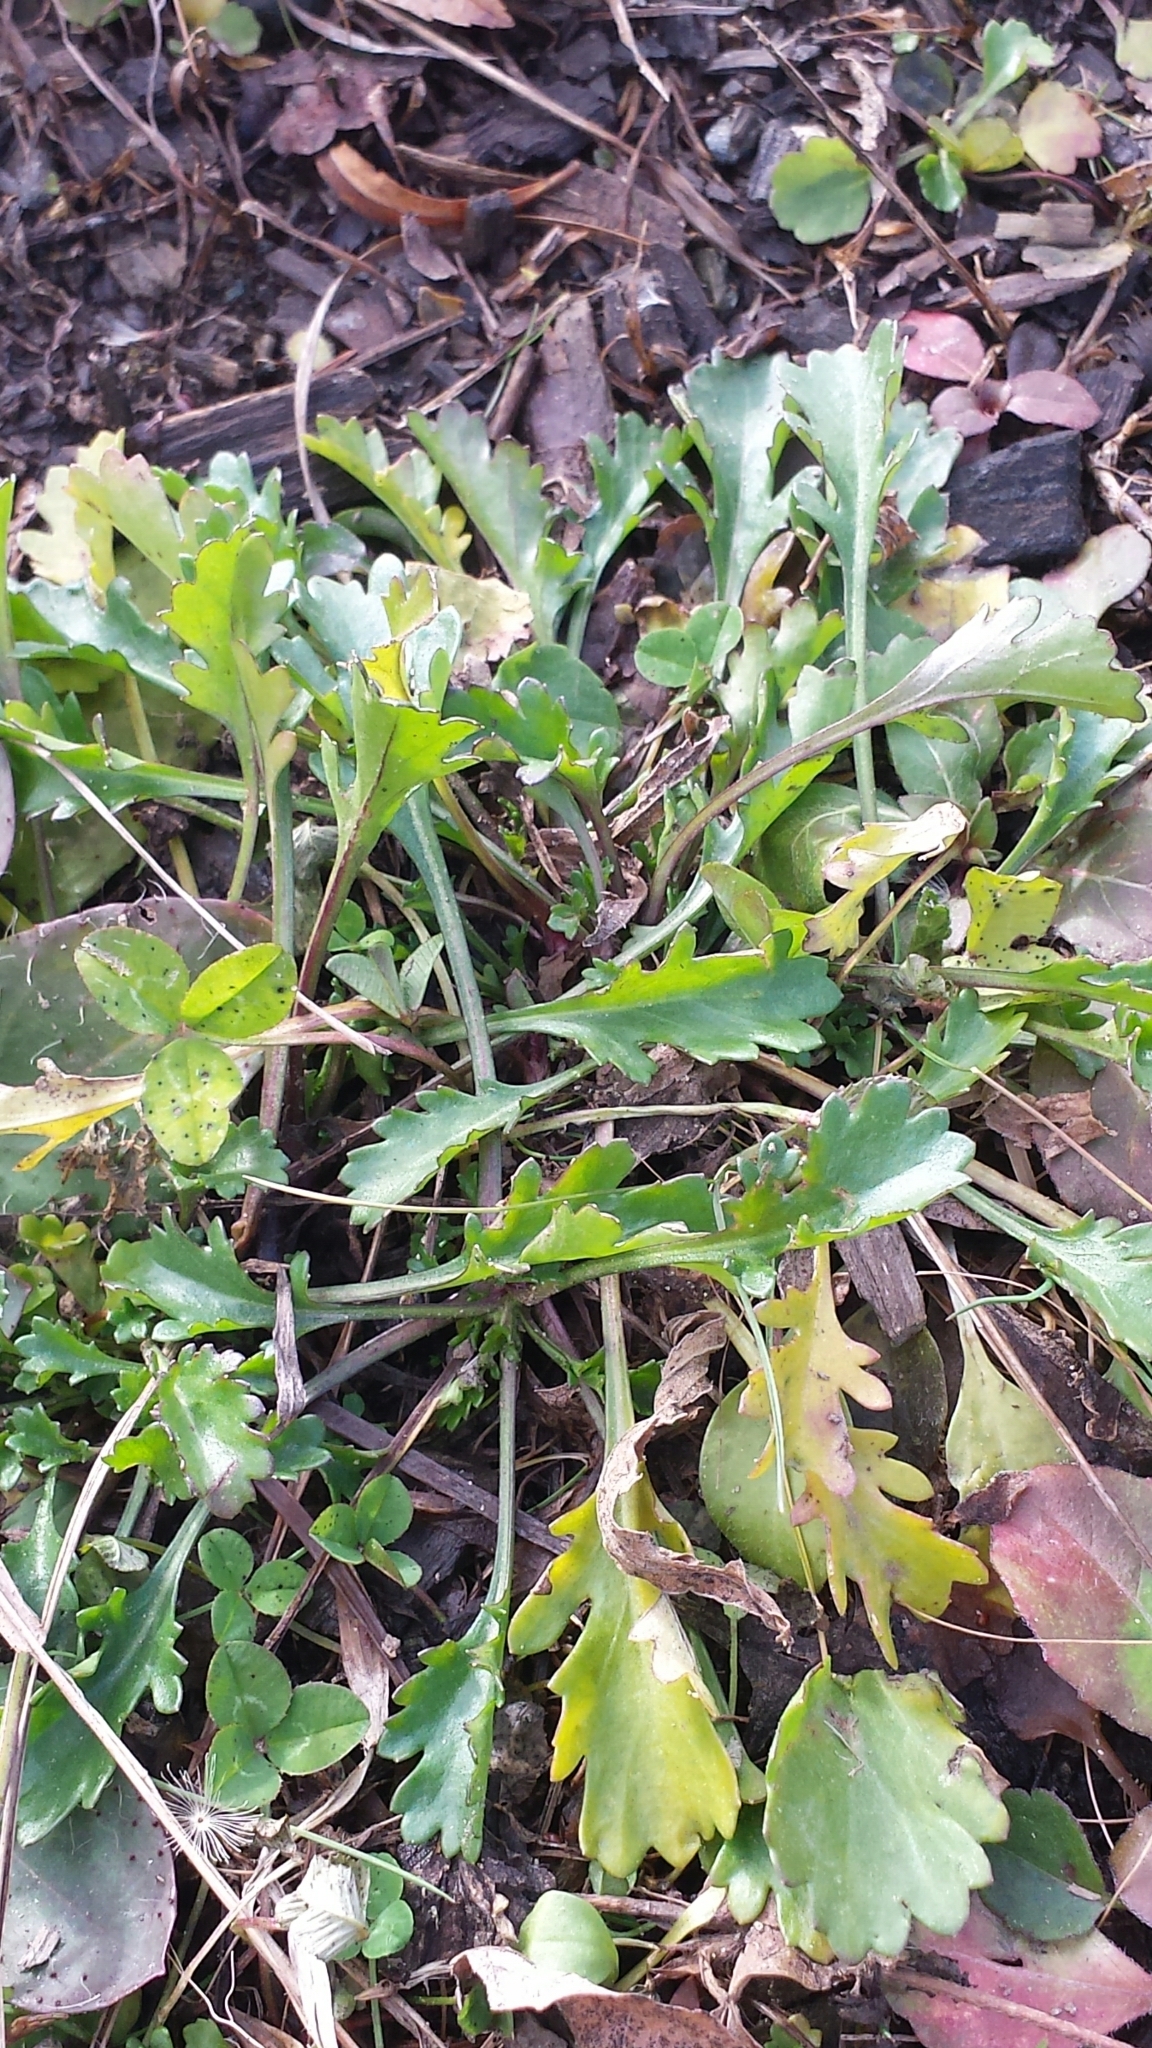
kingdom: Plantae
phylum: Tracheophyta
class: Magnoliopsida
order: Asterales
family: Asteraceae
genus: Leucanthemum
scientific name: Leucanthemum vulgare
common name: Oxeye daisy
